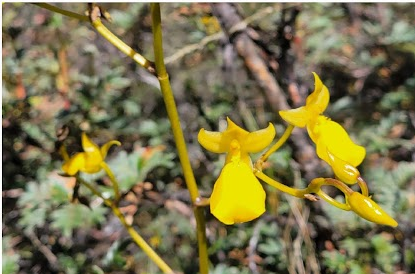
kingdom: Plantae
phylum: Tracheophyta
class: Liliopsida
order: Asparagales
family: Orchidaceae
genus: Cyrtochilum
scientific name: Cyrtochilum mystacinum
